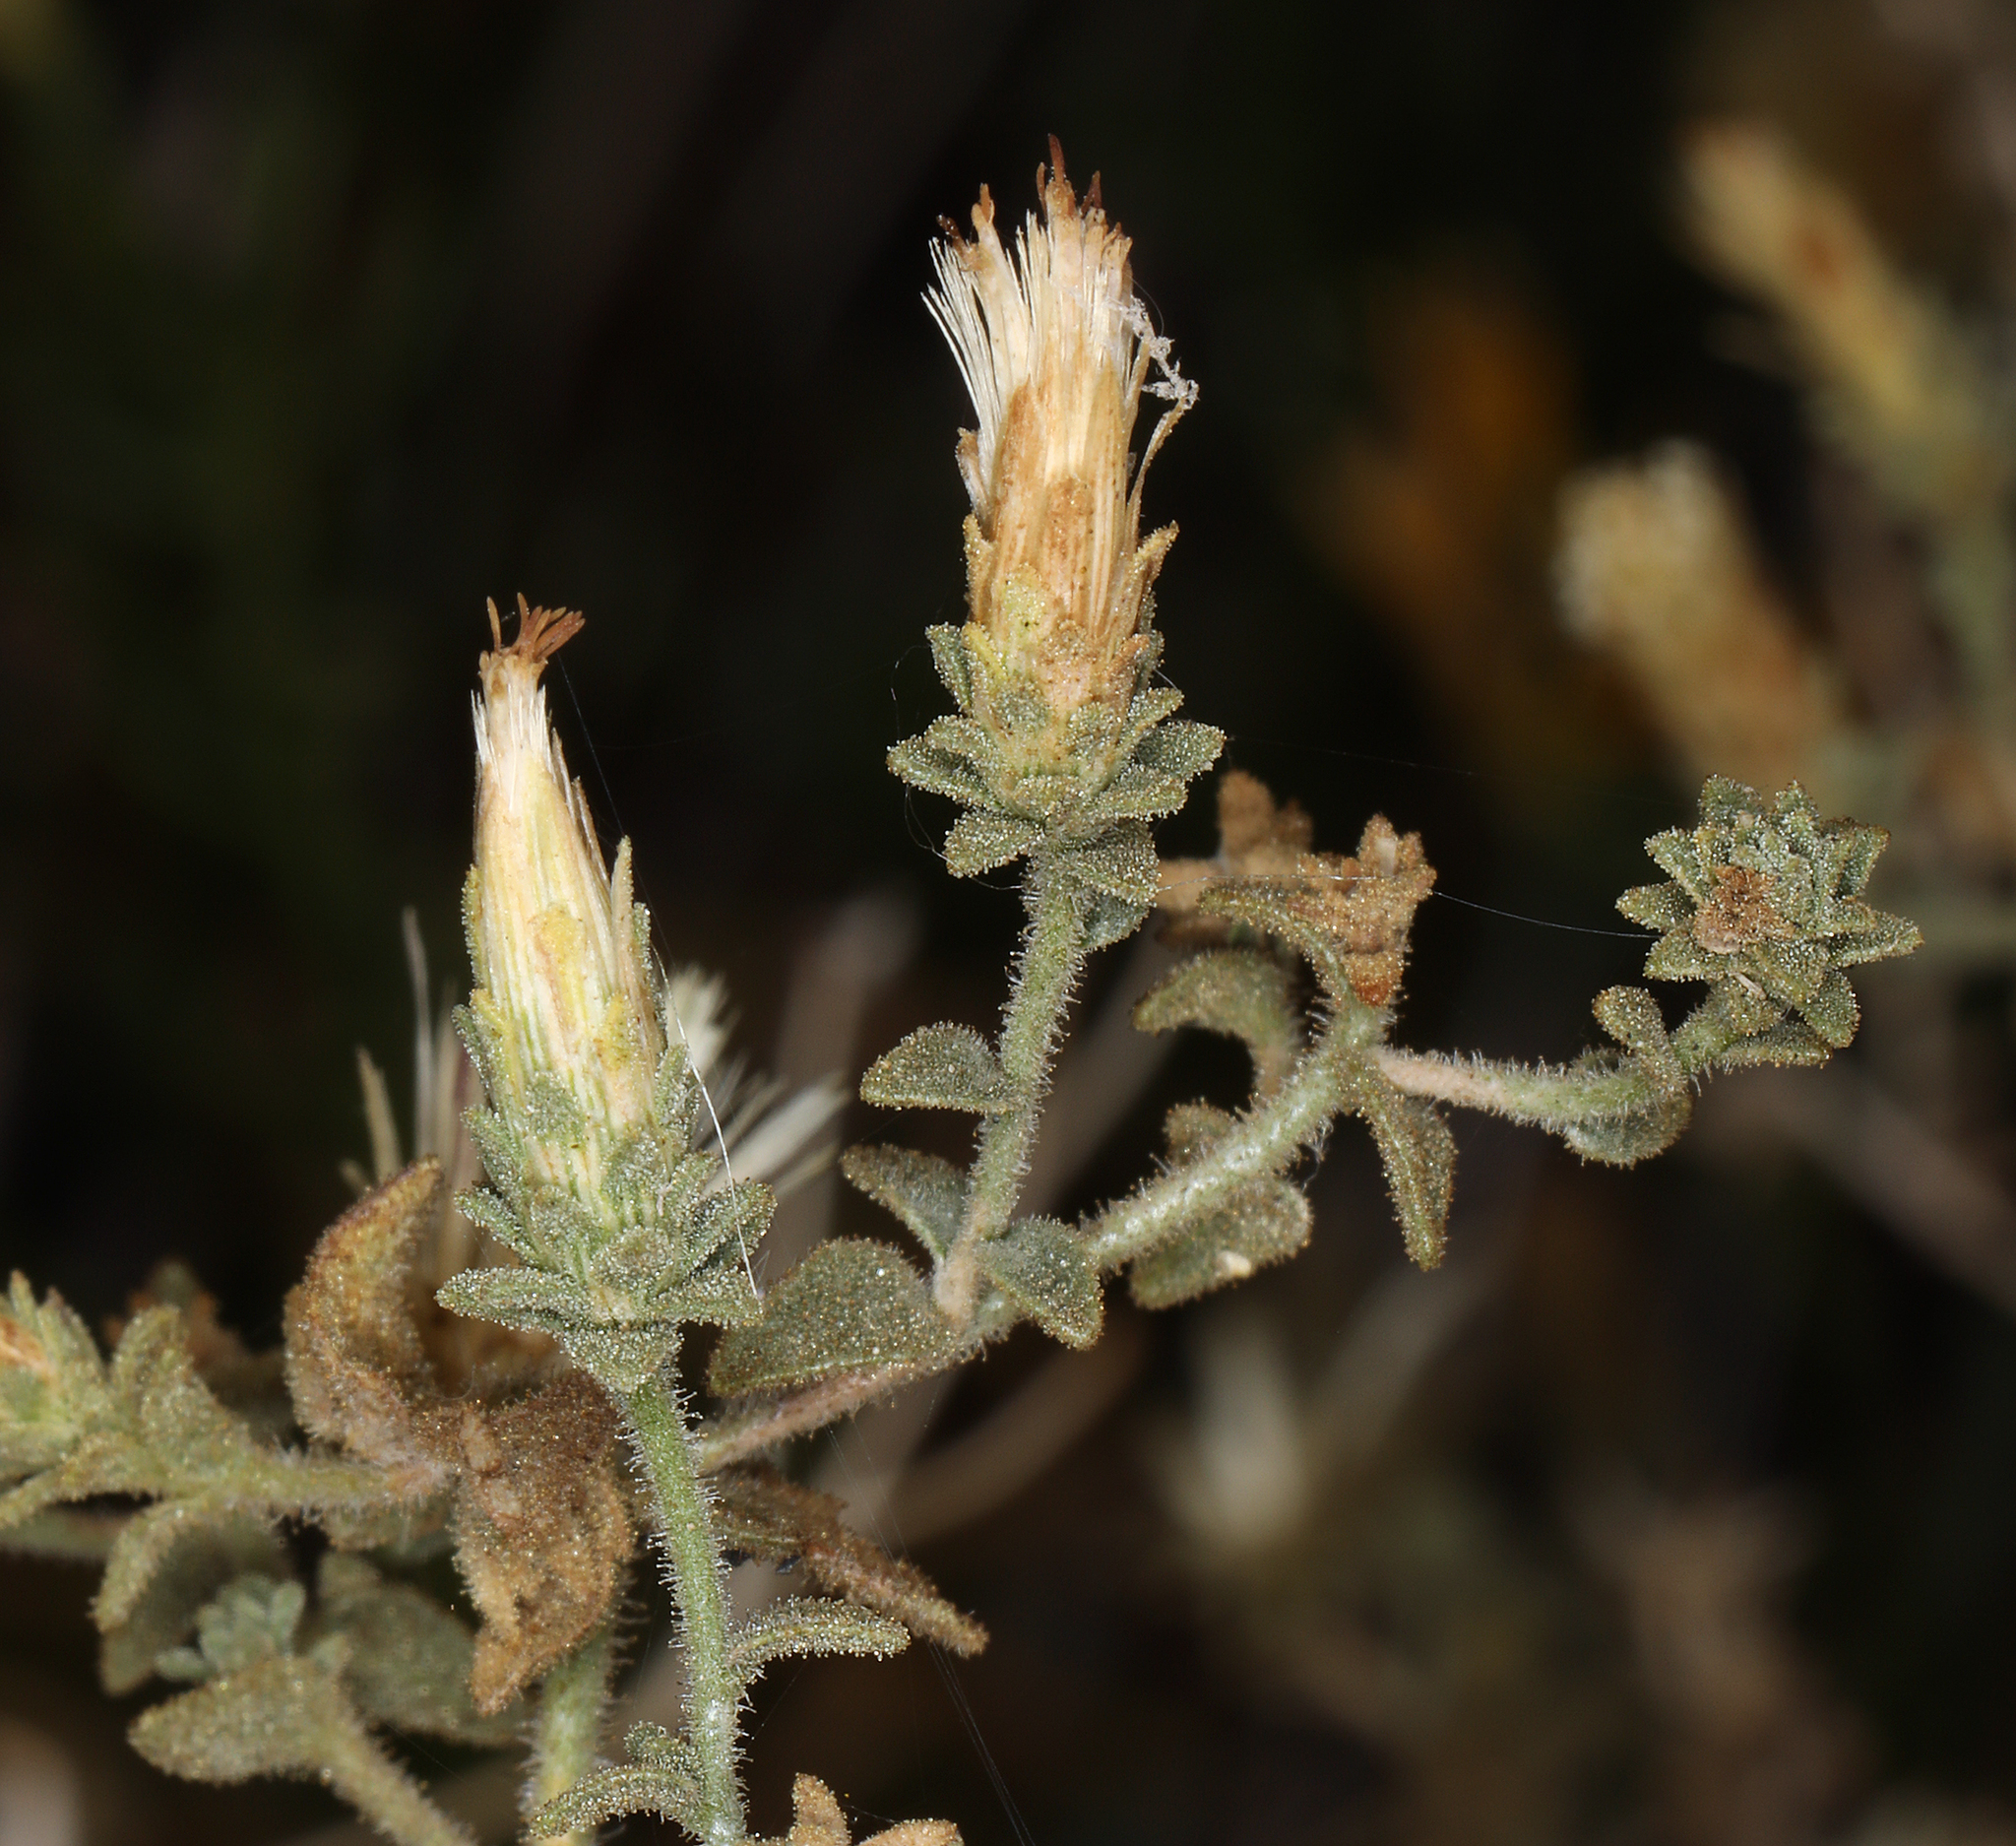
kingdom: Plantae
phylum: Tracheophyta
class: Magnoliopsida
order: Asterales
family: Asteraceae
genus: Brickellia
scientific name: Brickellia microphylla
